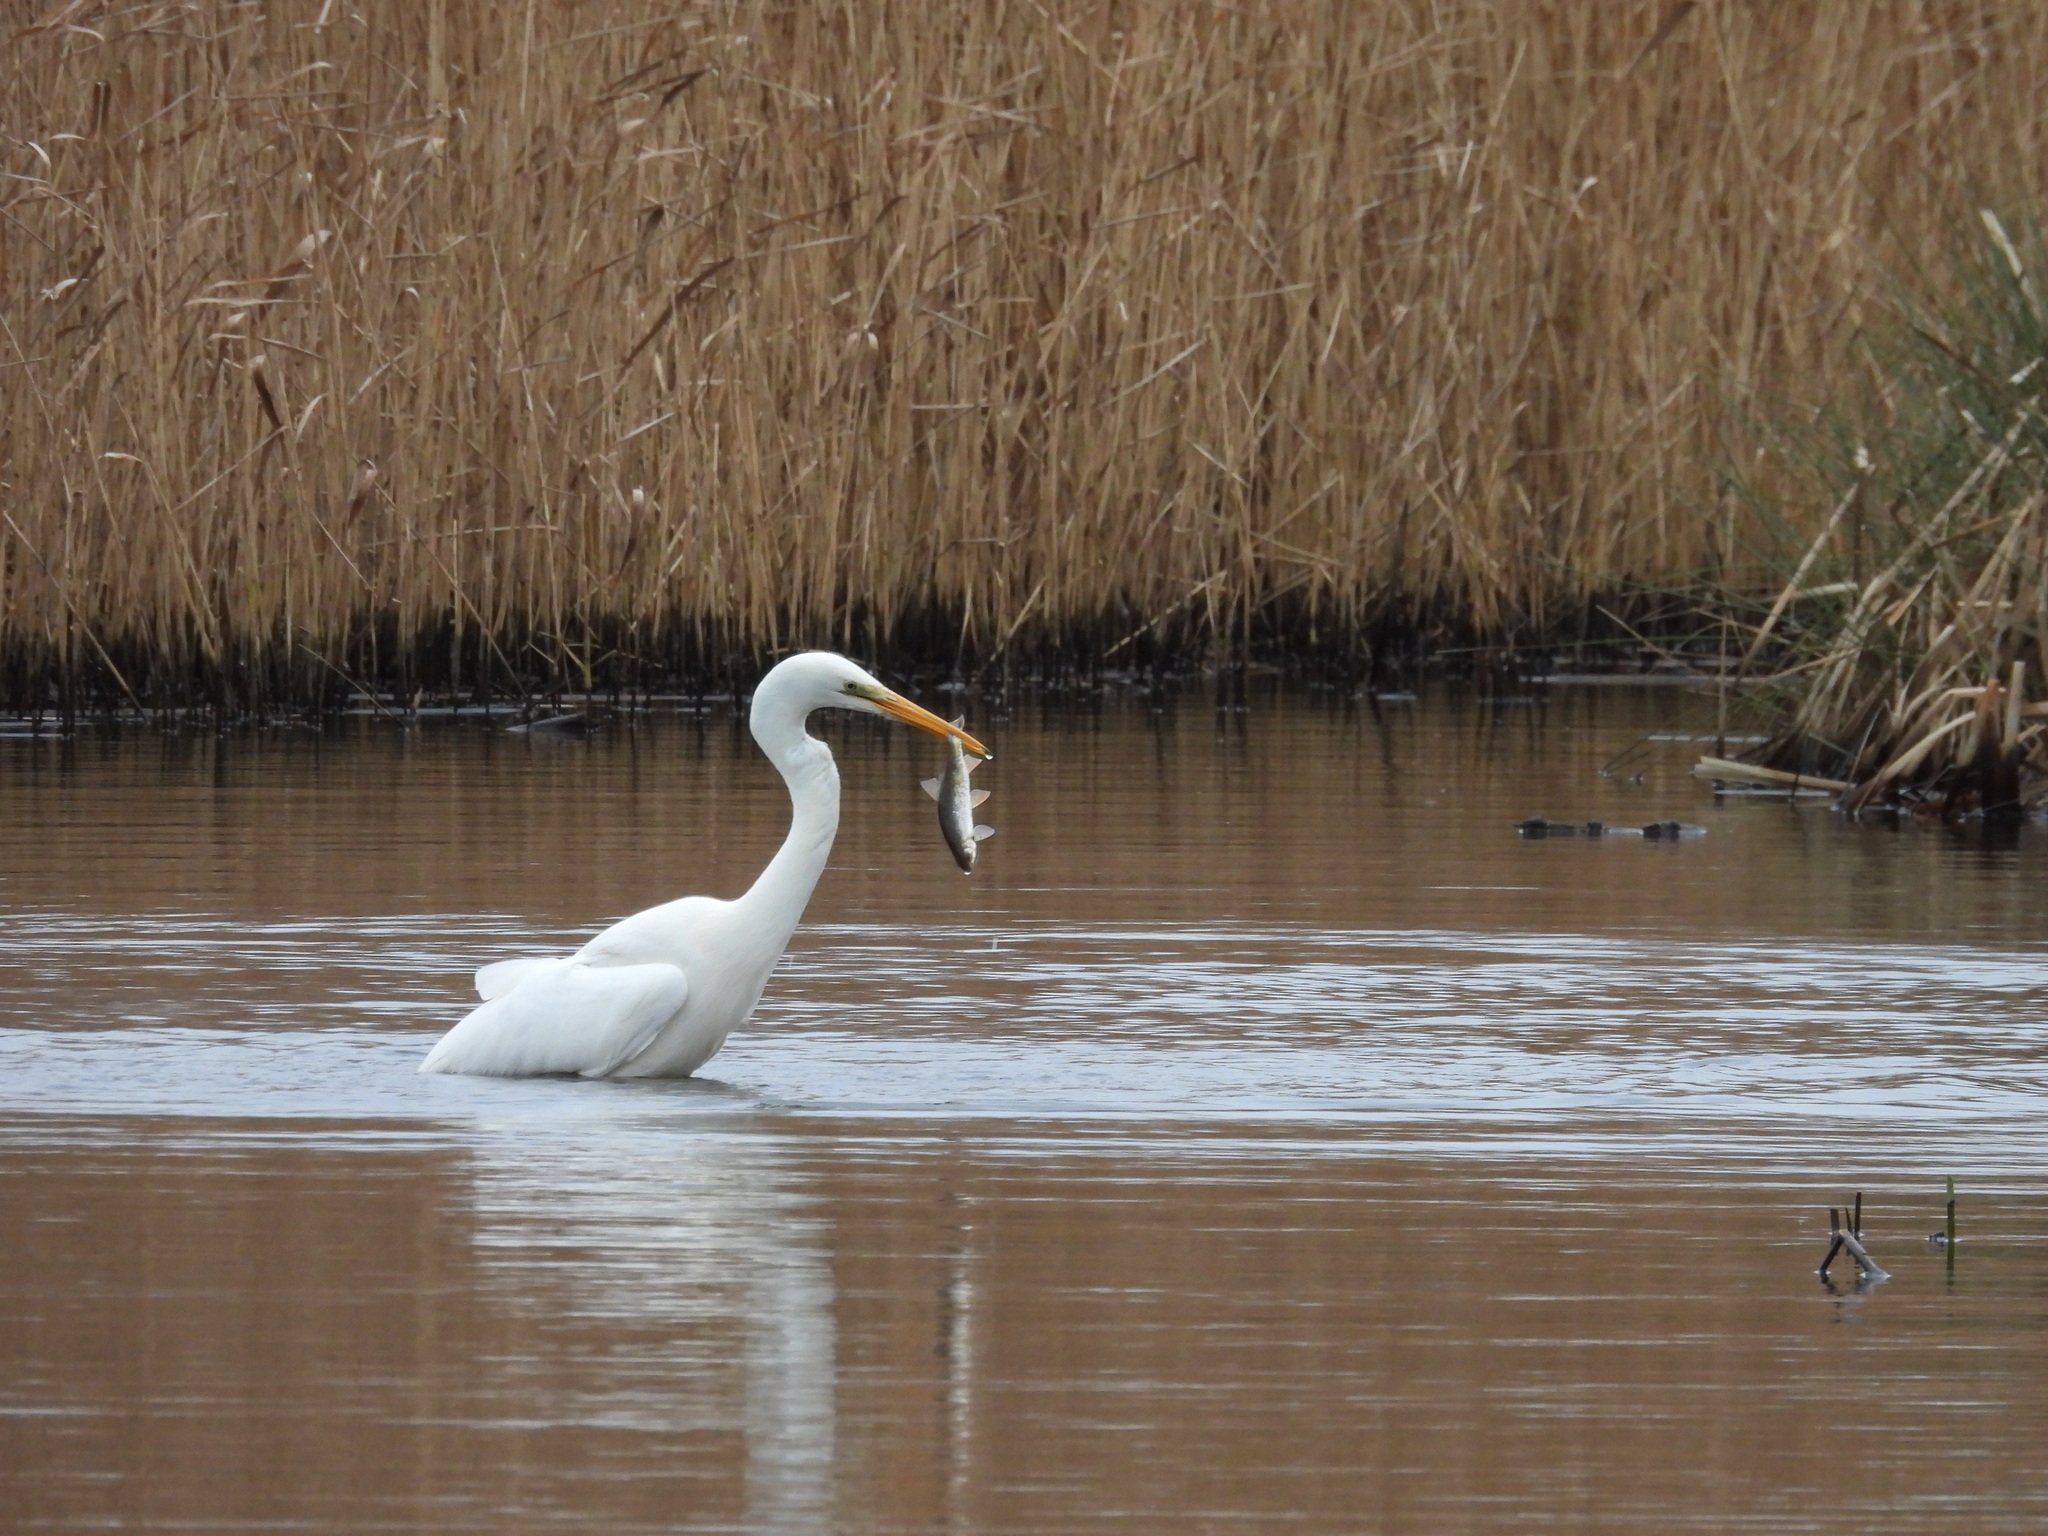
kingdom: Animalia
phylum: Chordata
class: Aves
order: Pelecaniformes
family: Ardeidae
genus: Ardea
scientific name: Ardea alba
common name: Great egret
